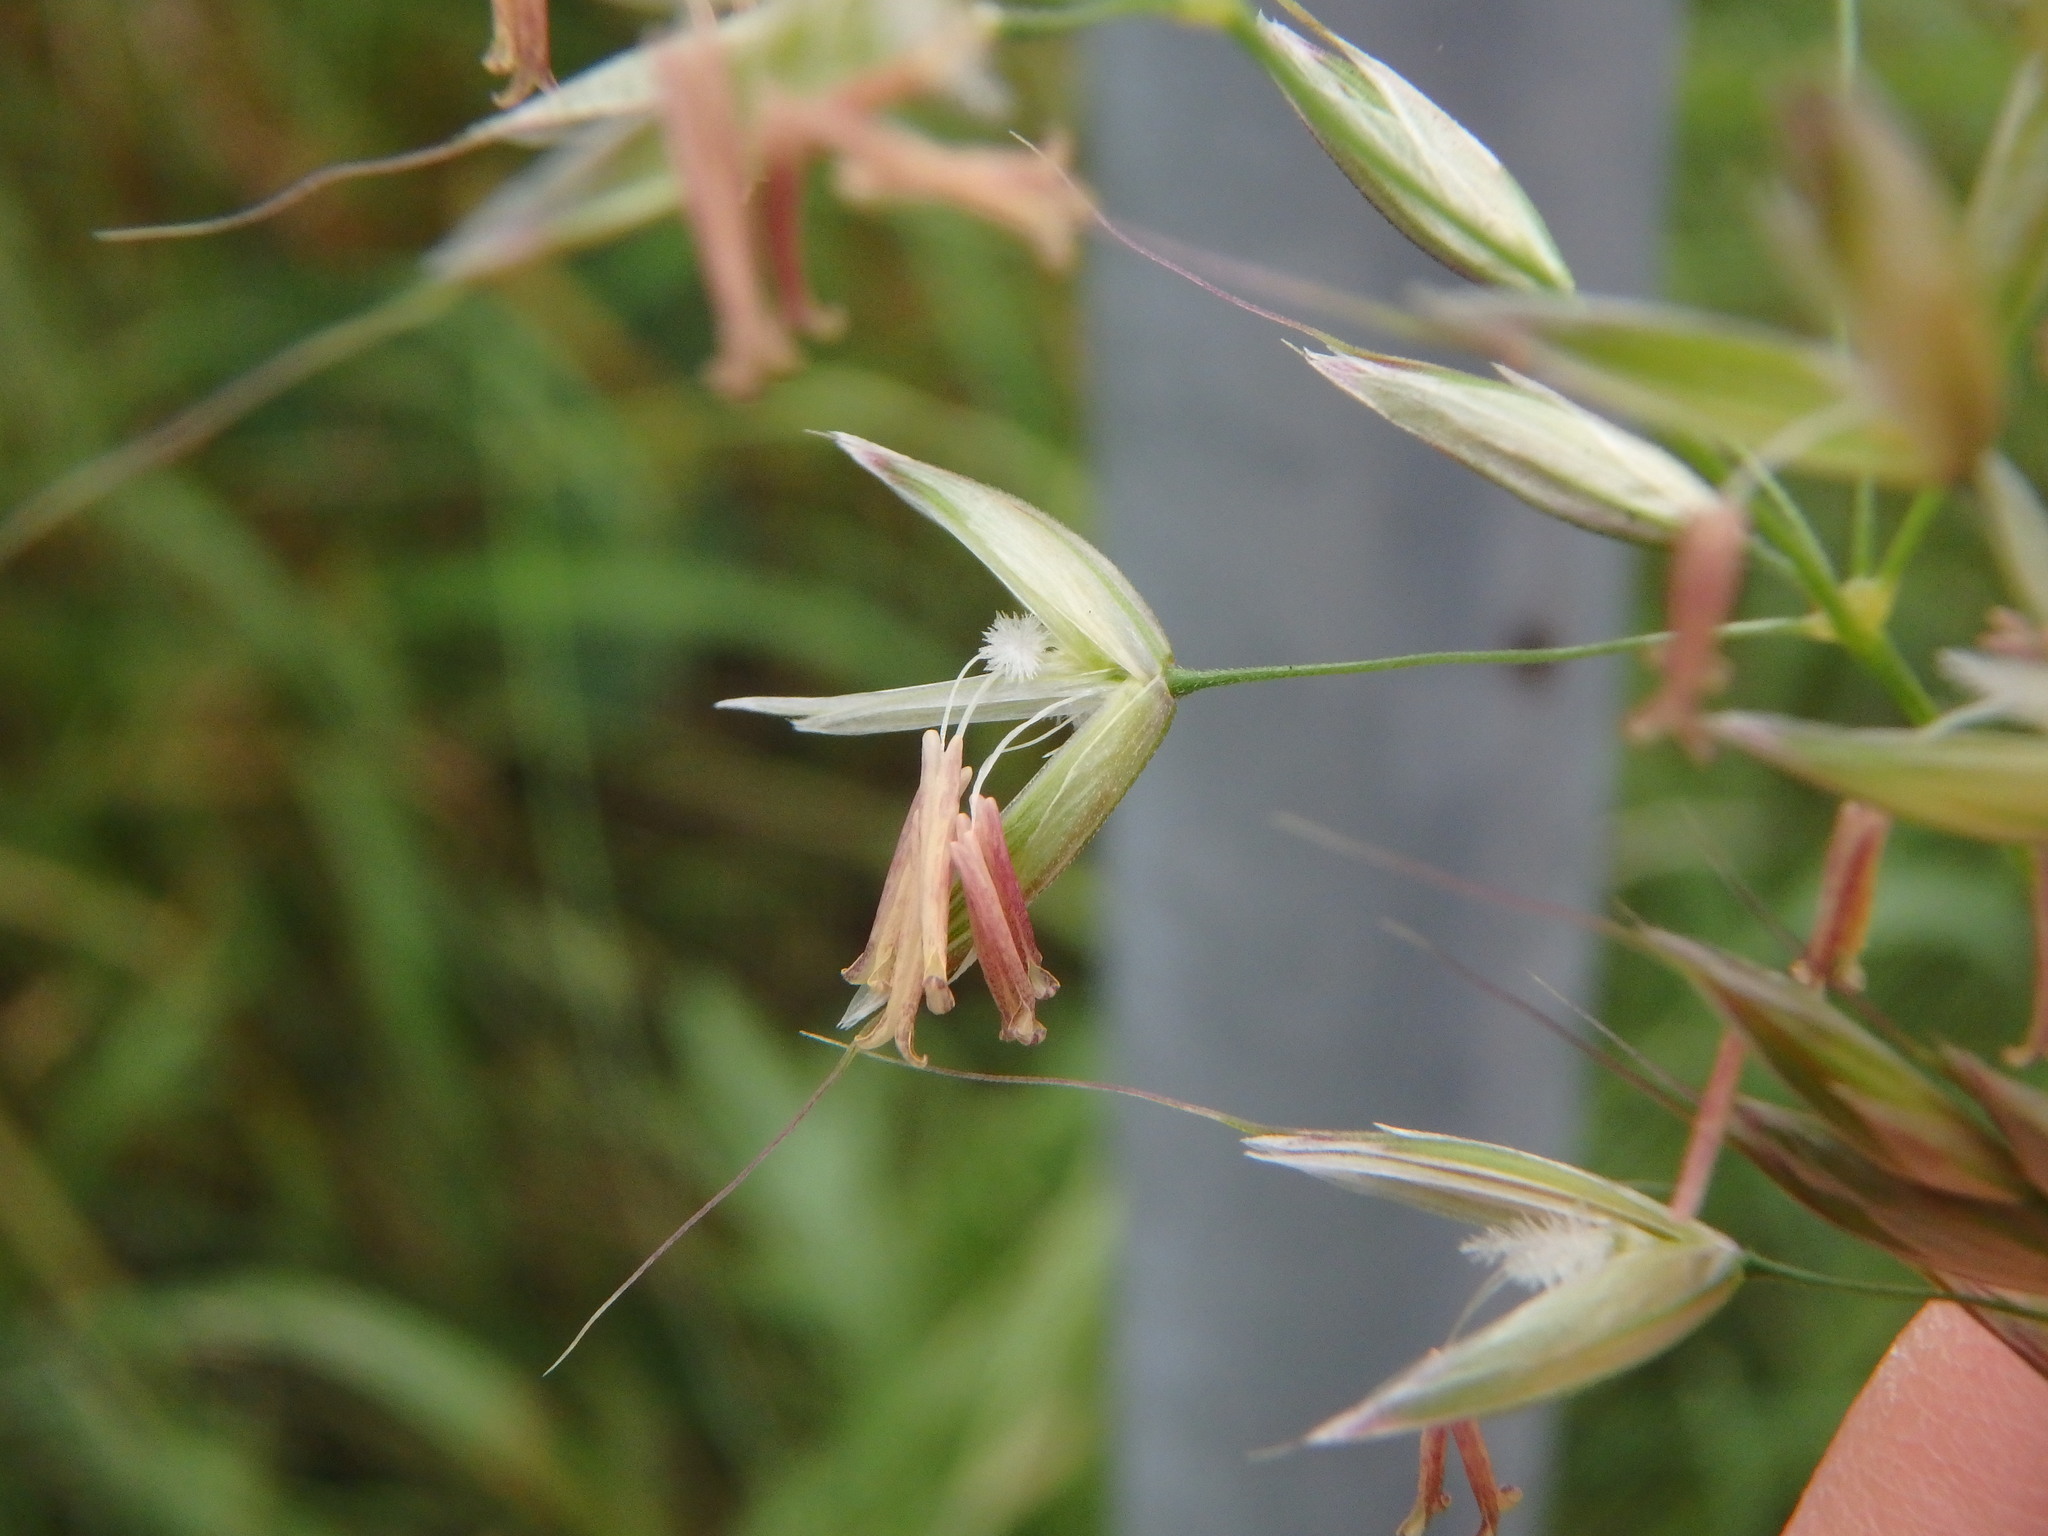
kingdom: Plantae
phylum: Tracheophyta
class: Liliopsida
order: Poales
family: Poaceae
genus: Arrhenatherum
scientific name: Arrhenatherum elatius
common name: Tall oatgrass
